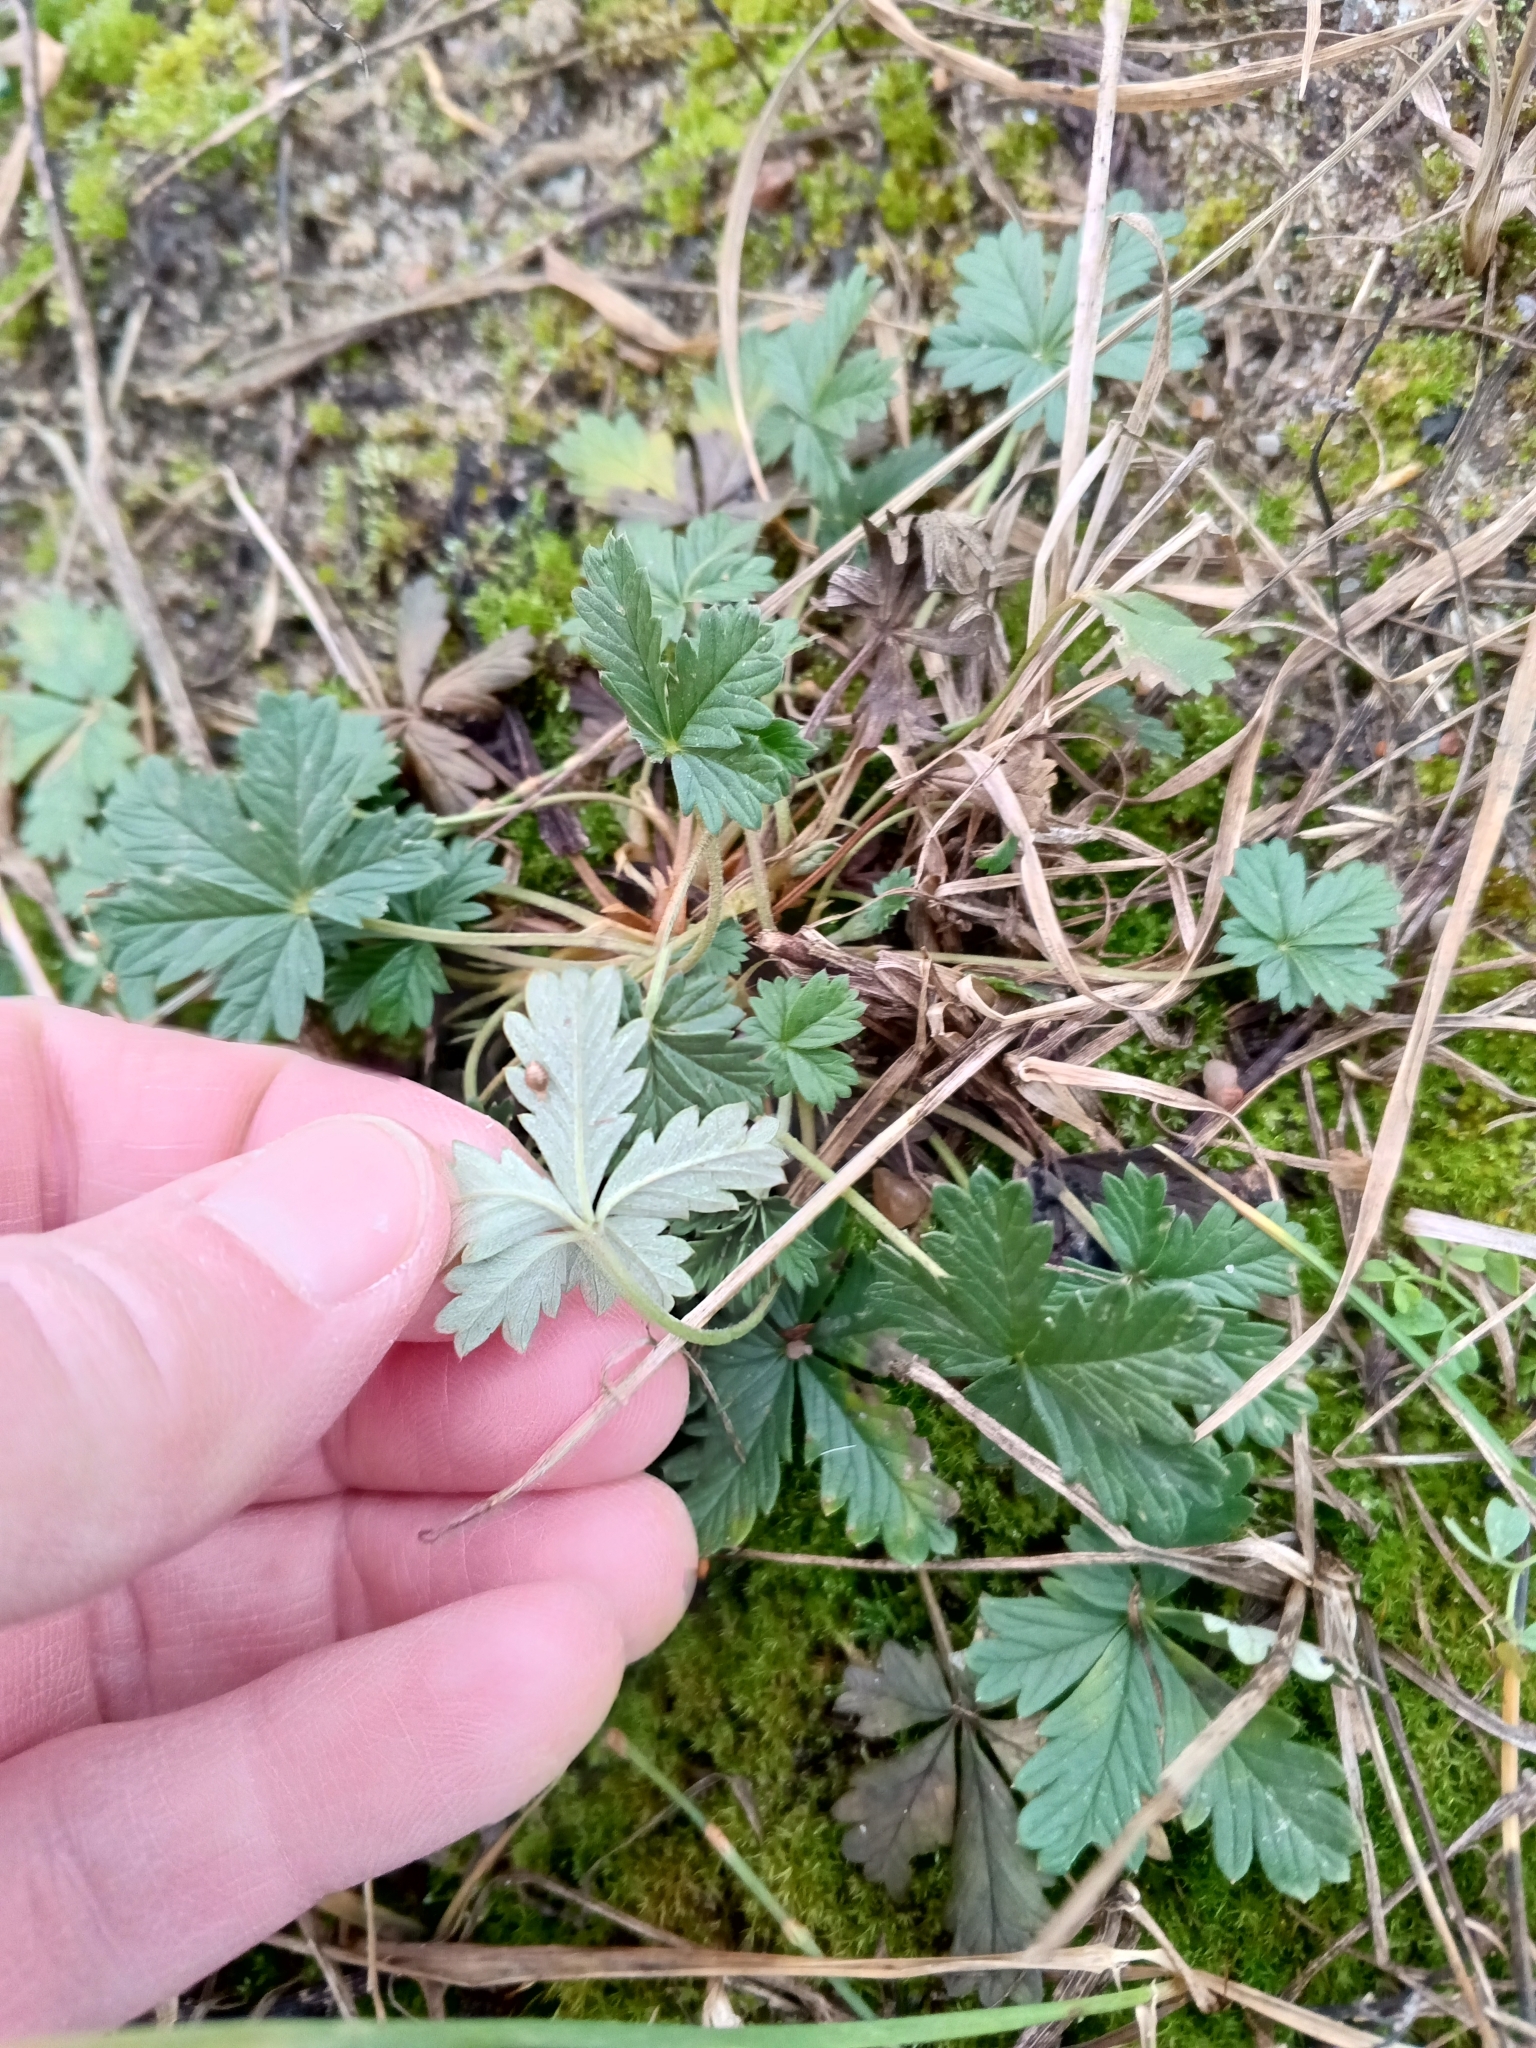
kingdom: Plantae
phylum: Tracheophyta
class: Magnoliopsida
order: Rosales
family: Rosaceae
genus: Potentilla
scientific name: Potentilla argentea
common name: Hoary cinquefoil
